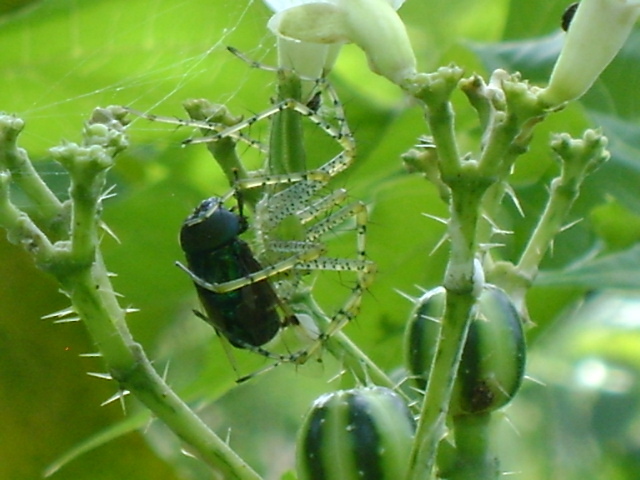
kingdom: Animalia
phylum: Arthropoda
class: Insecta
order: Diptera
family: Syrphidae
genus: Ornidia
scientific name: Ornidia obesa
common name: Syrphid fly
